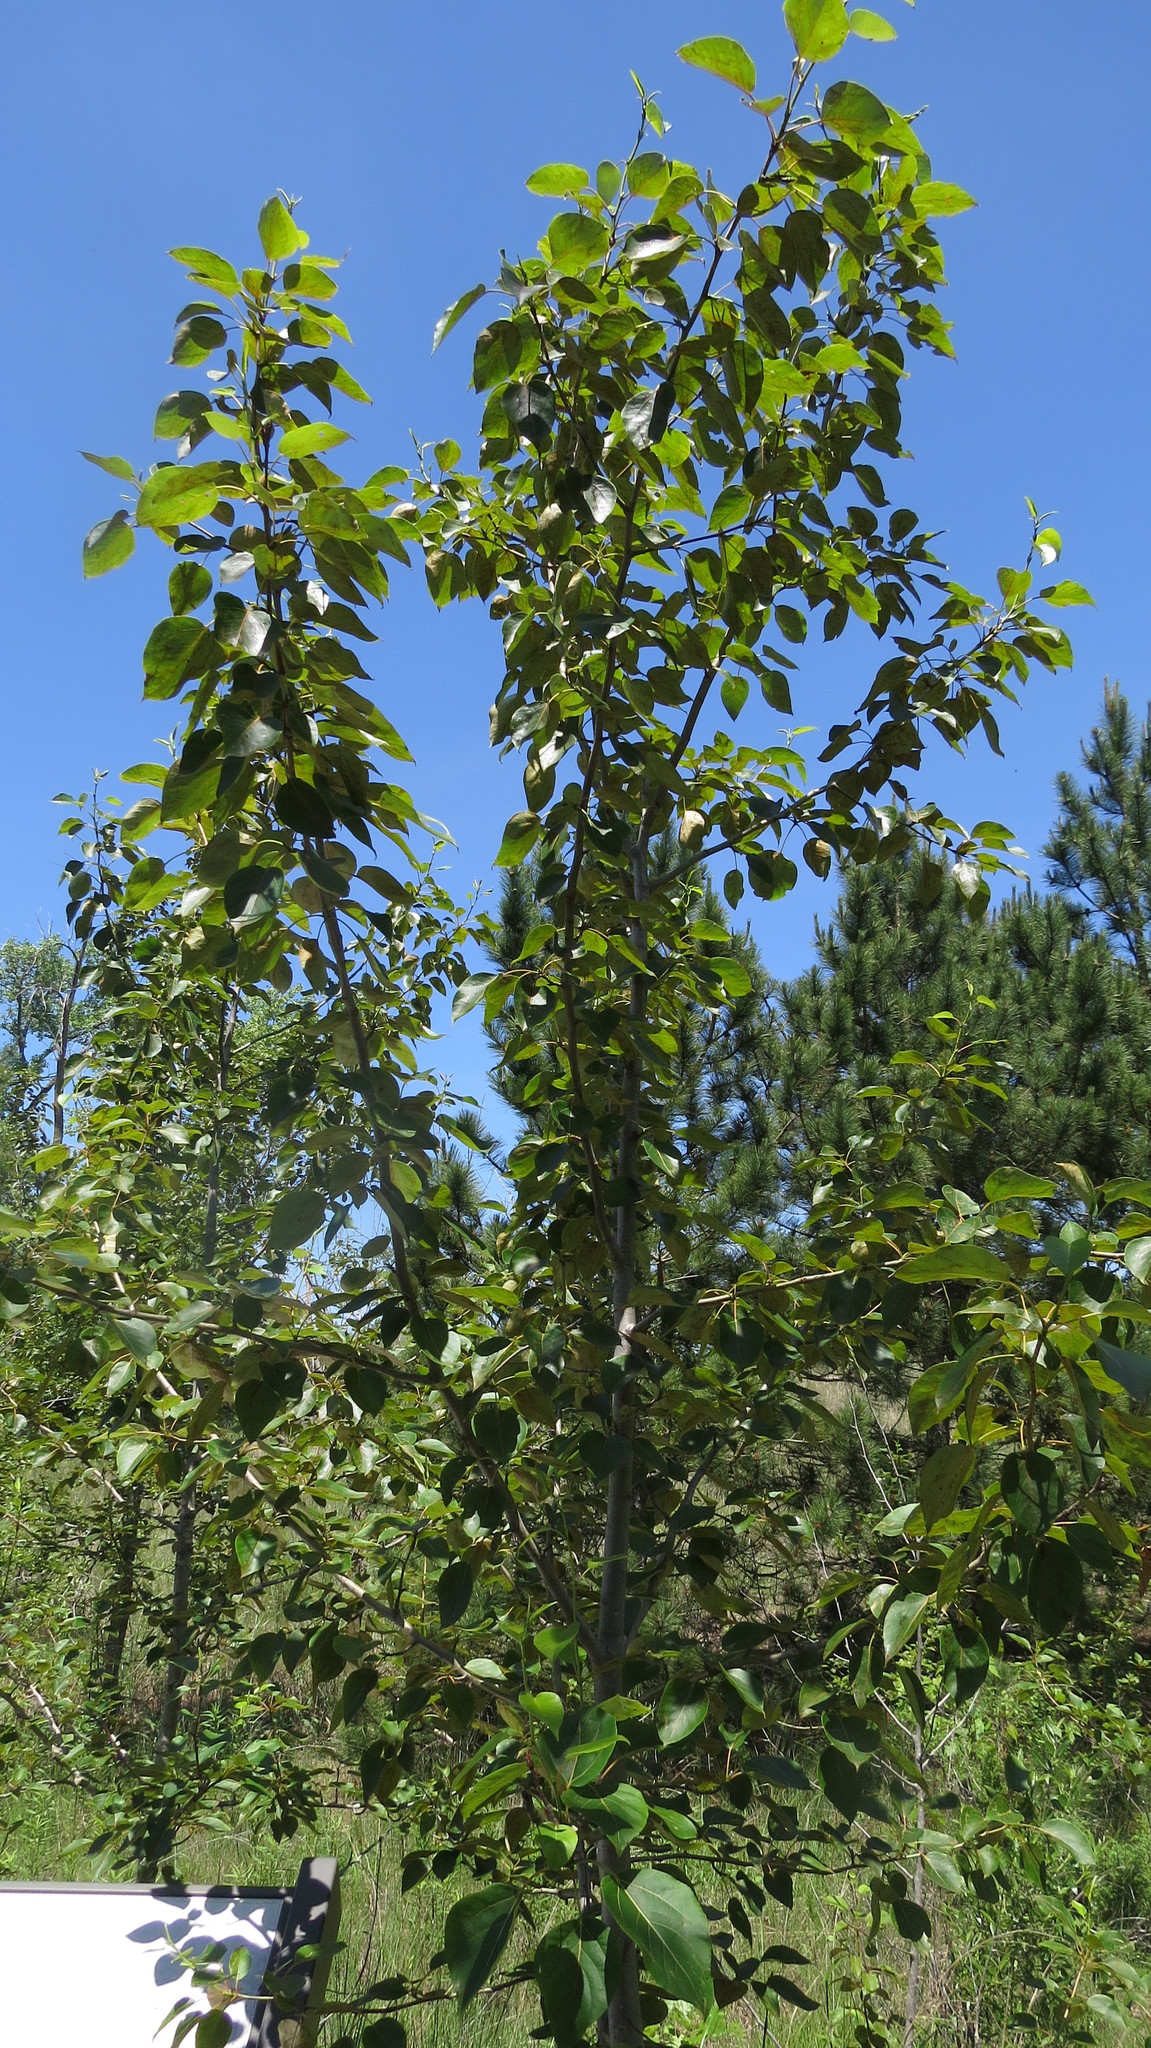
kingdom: Plantae
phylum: Tracheophyta
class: Magnoliopsida
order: Malpighiales
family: Salicaceae
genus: Populus
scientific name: Populus balsamifera
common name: Balsam poplar
